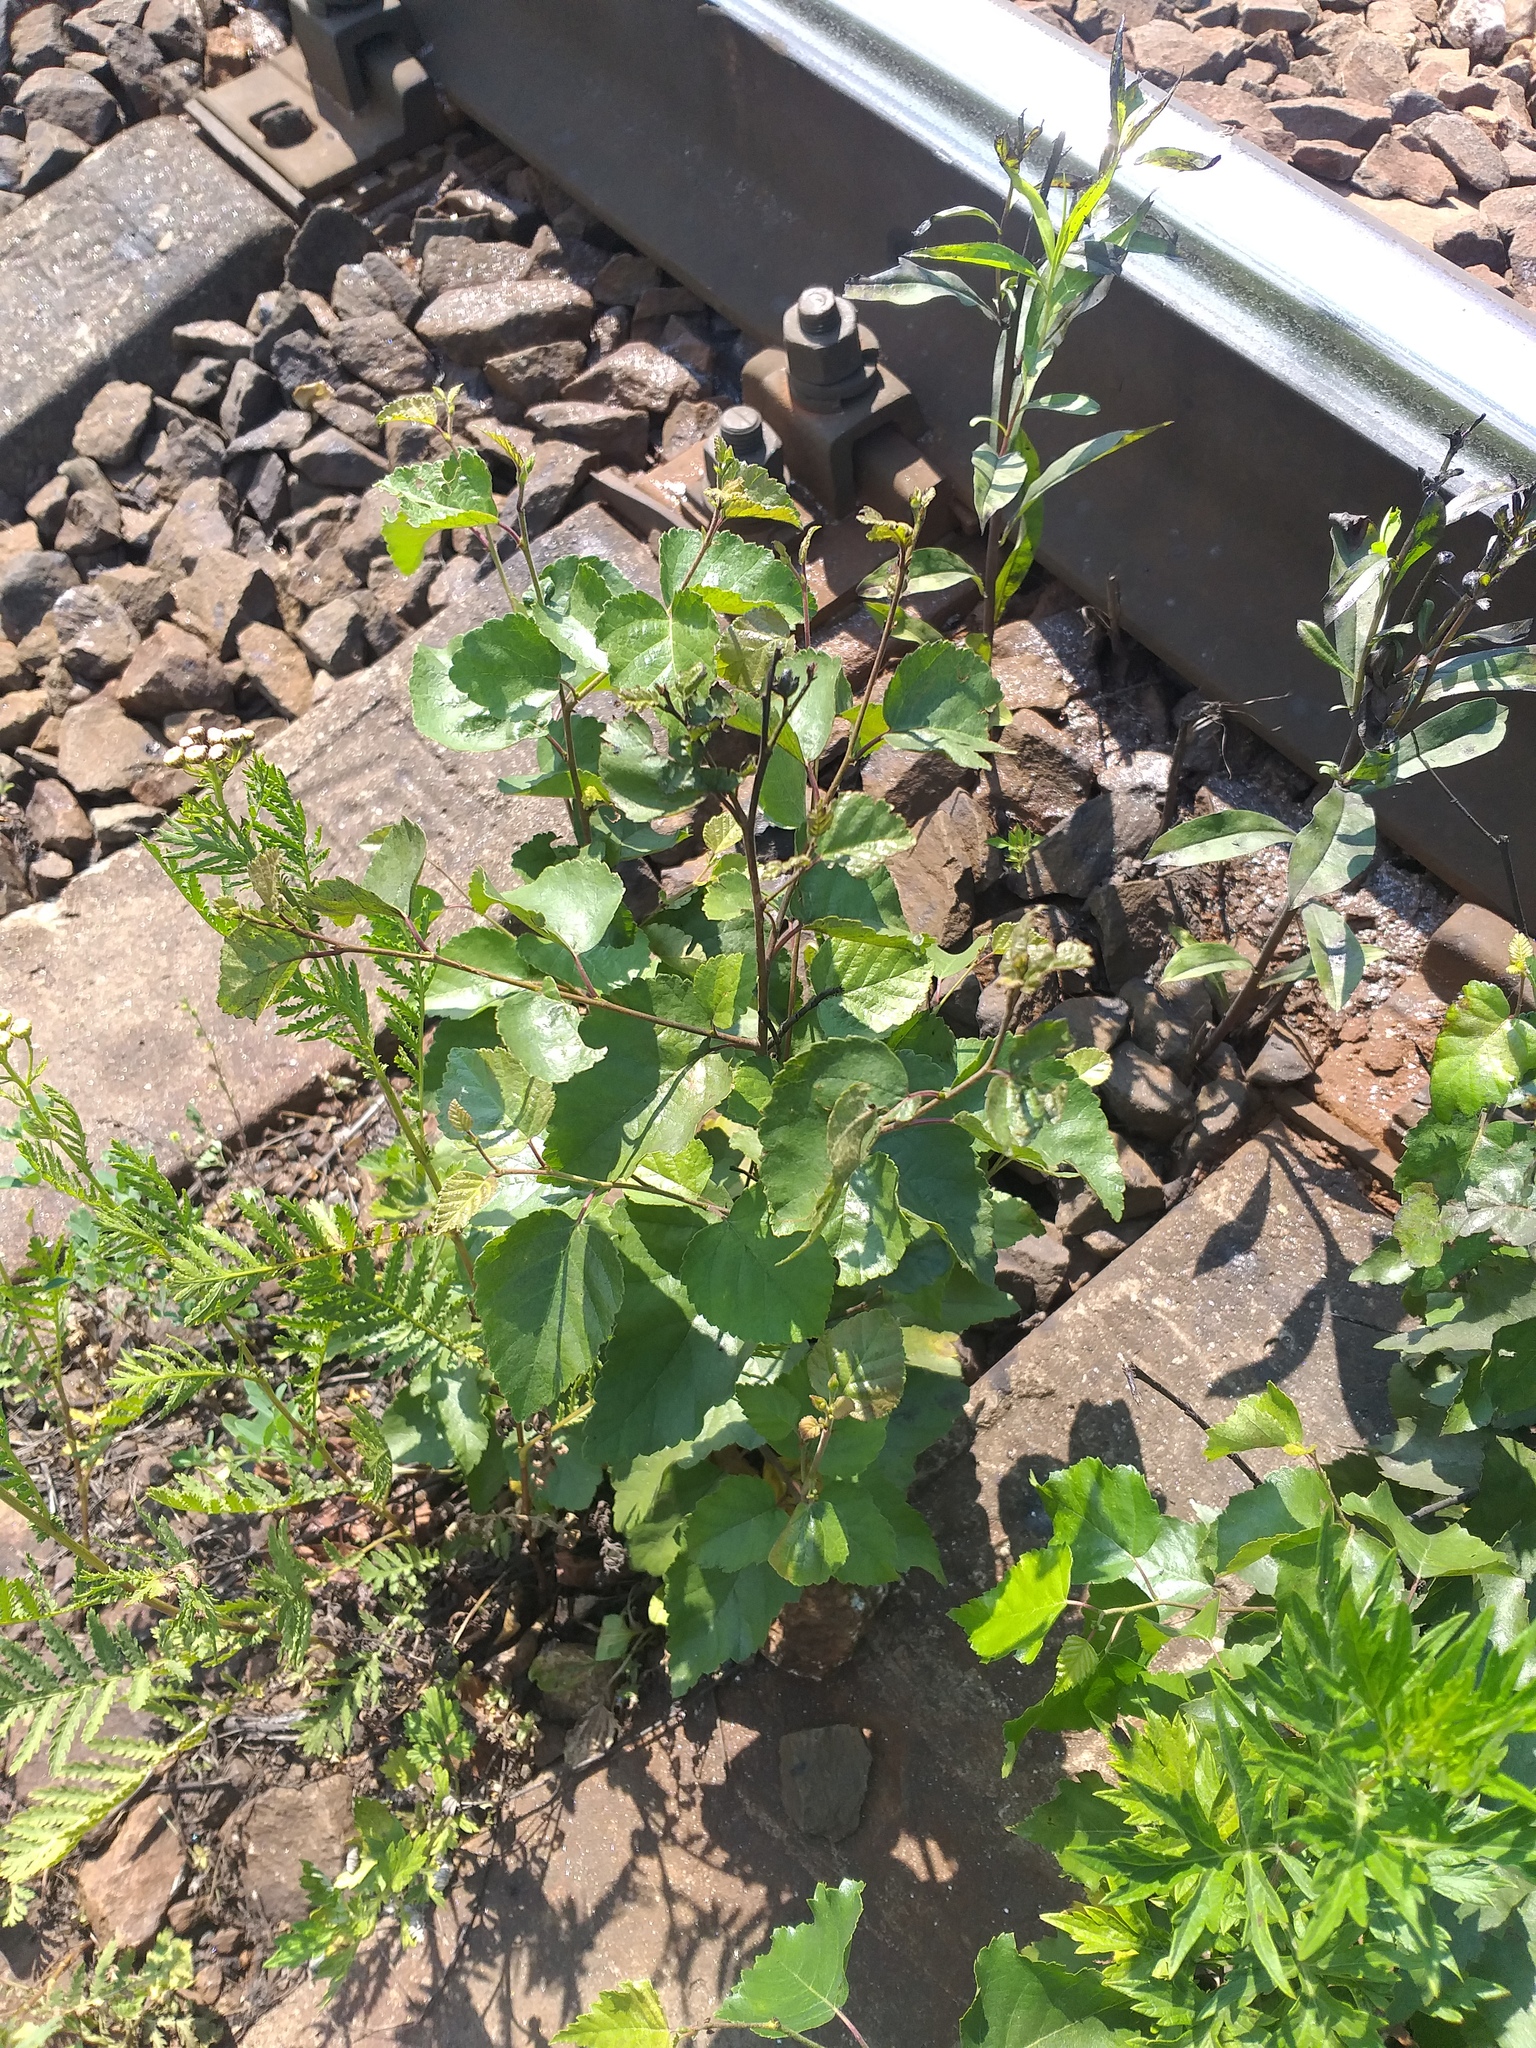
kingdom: Plantae
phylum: Tracheophyta
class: Magnoliopsida
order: Fagales
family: Betulaceae
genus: Betula
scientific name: Betula pubescens
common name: Downy birch
